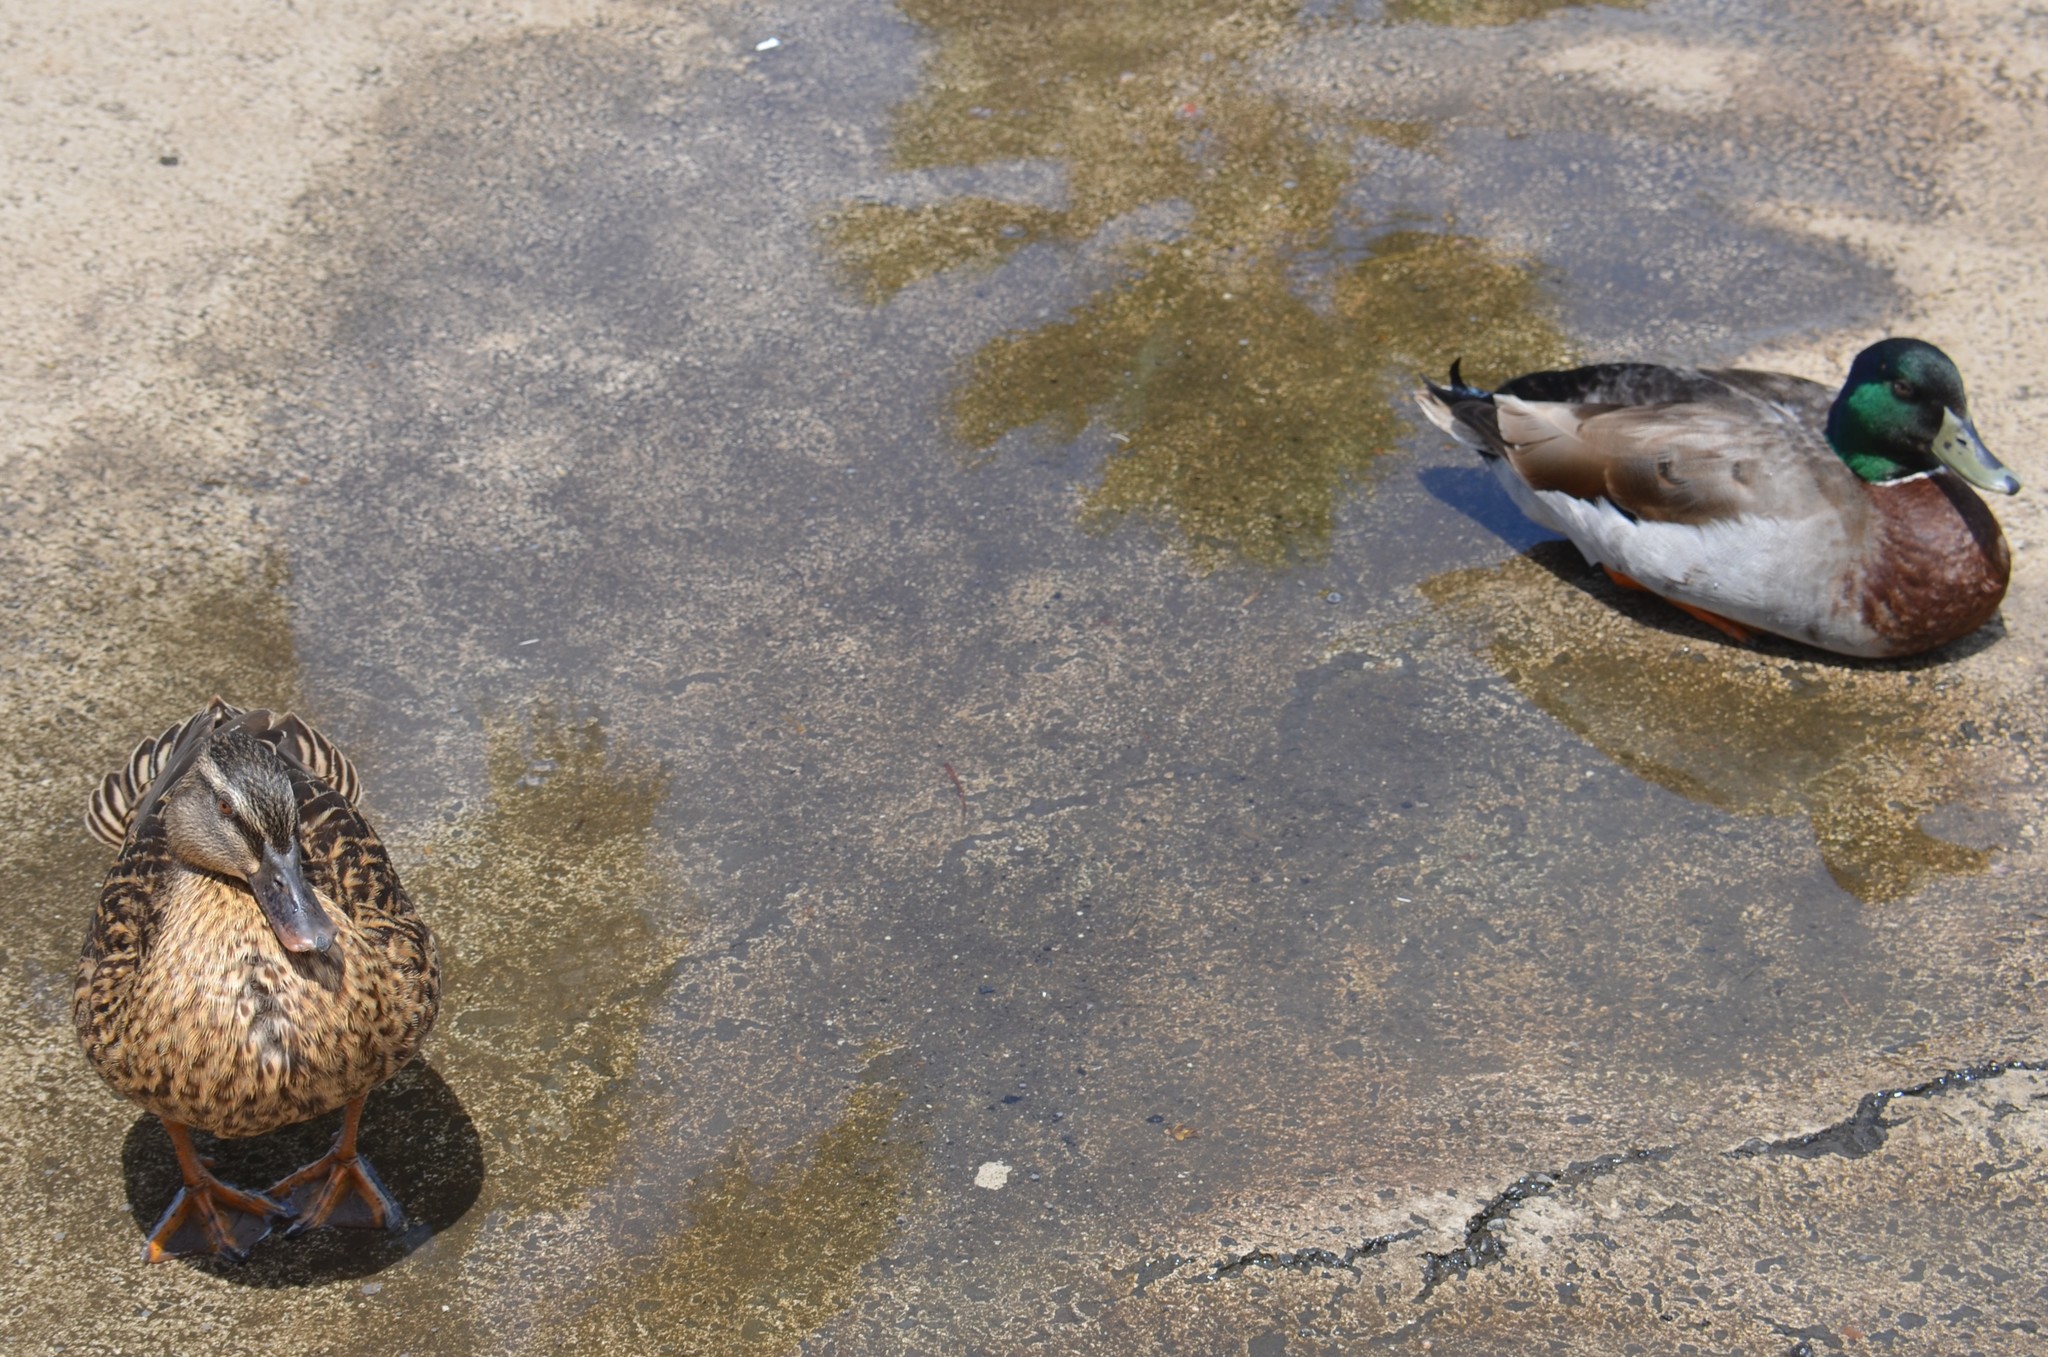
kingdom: Animalia
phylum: Chordata
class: Aves
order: Anseriformes
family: Anatidae
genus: Anas
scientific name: Anas
